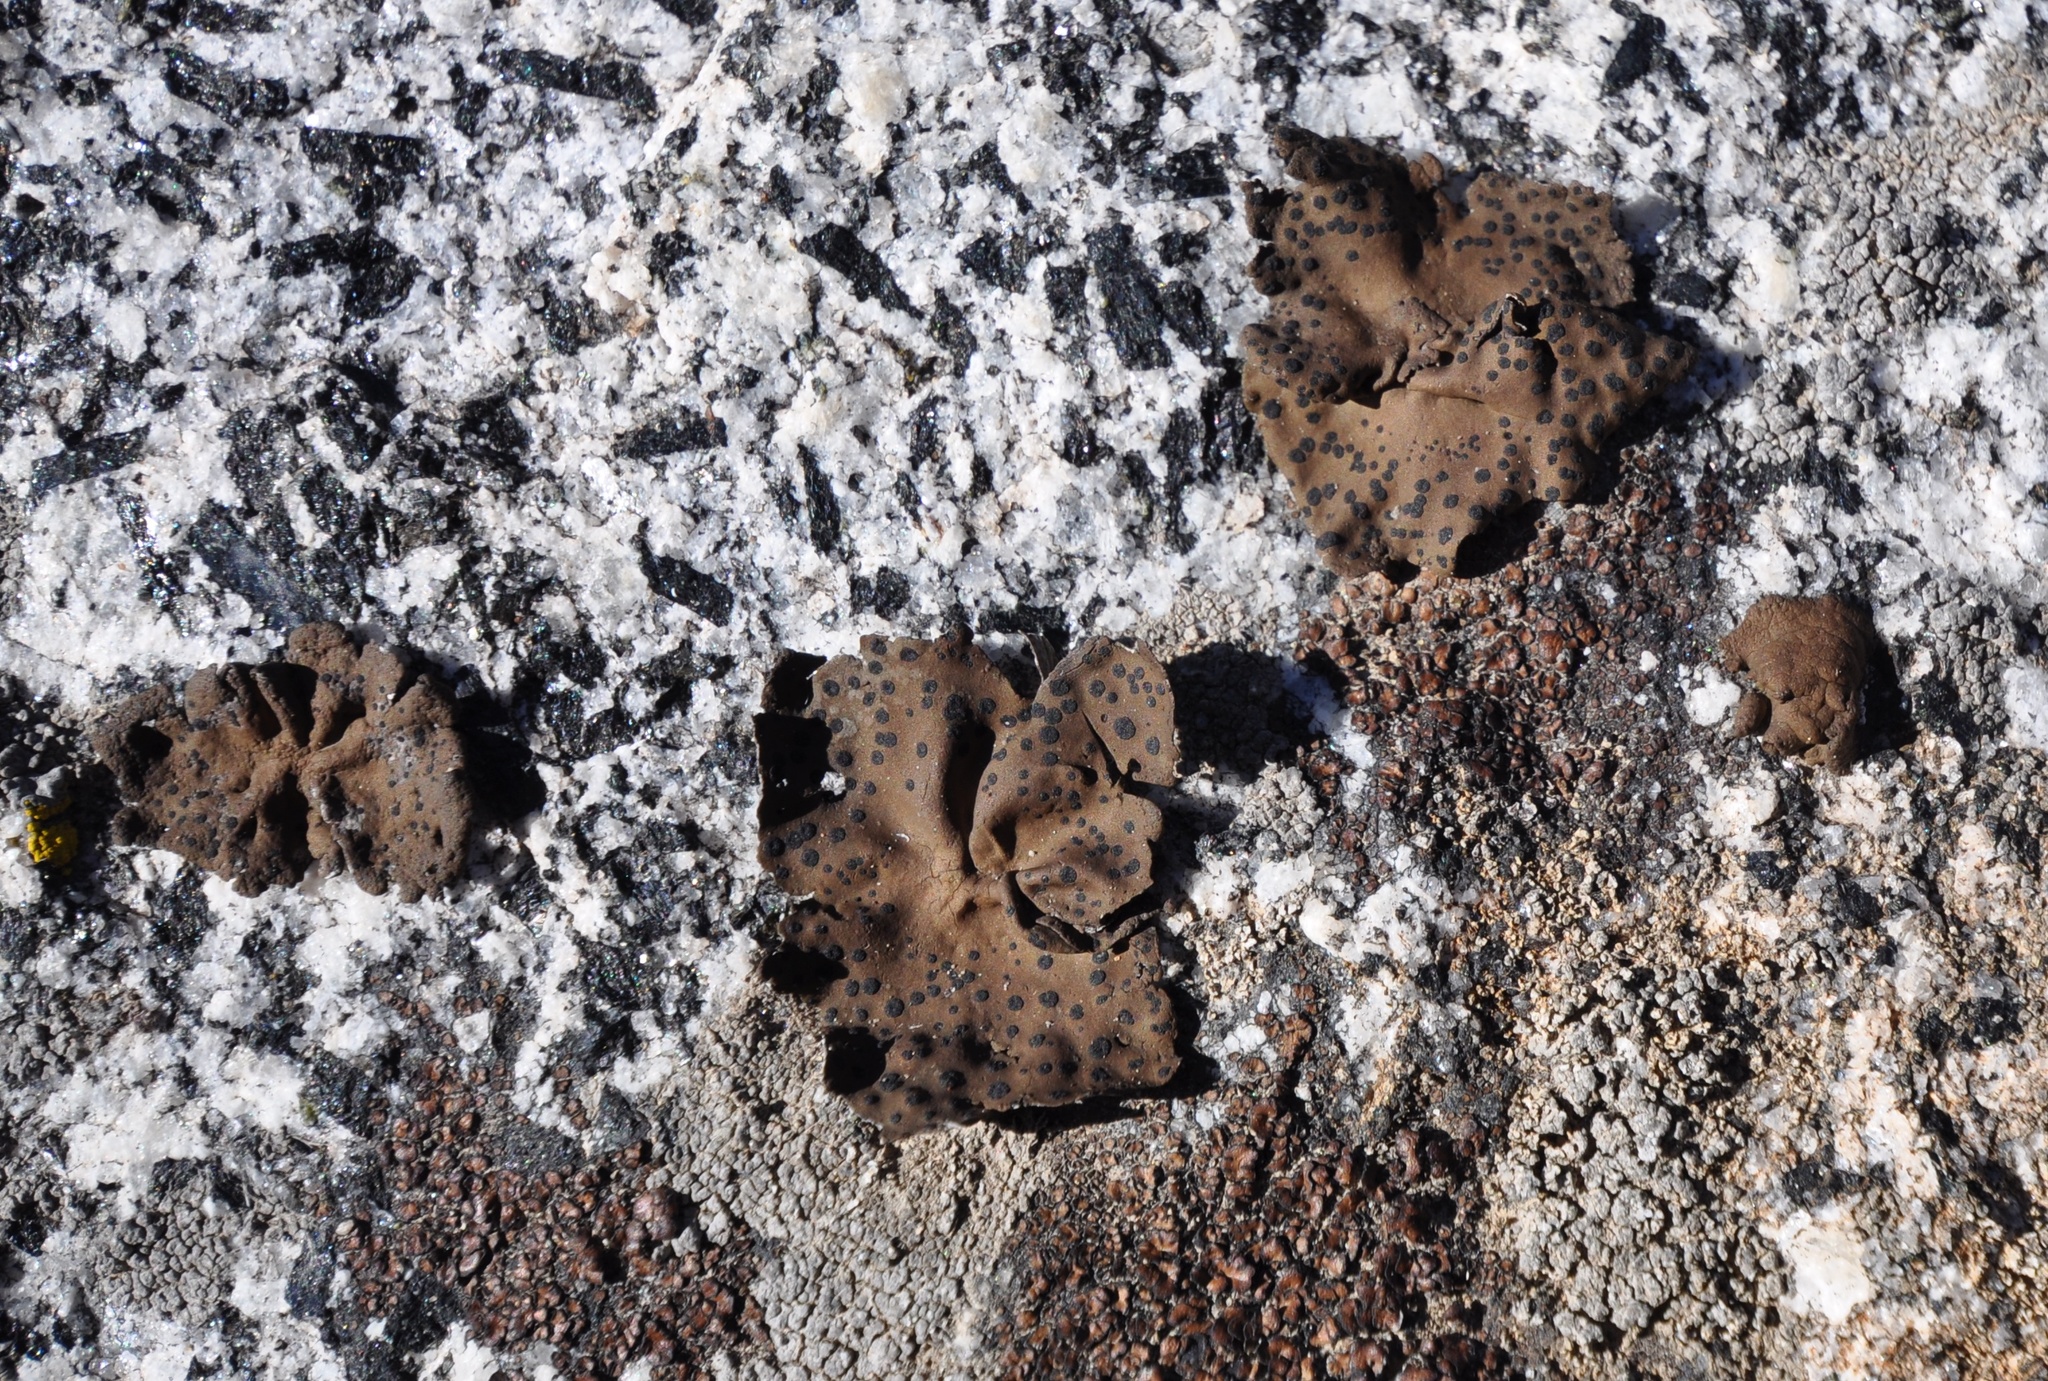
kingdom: Fungi
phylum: Ascomycota
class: Lecanoromycetes
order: Umbilicariales
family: Umbilicariaceae
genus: Umbilicaria
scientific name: Umbilicaria phaea
